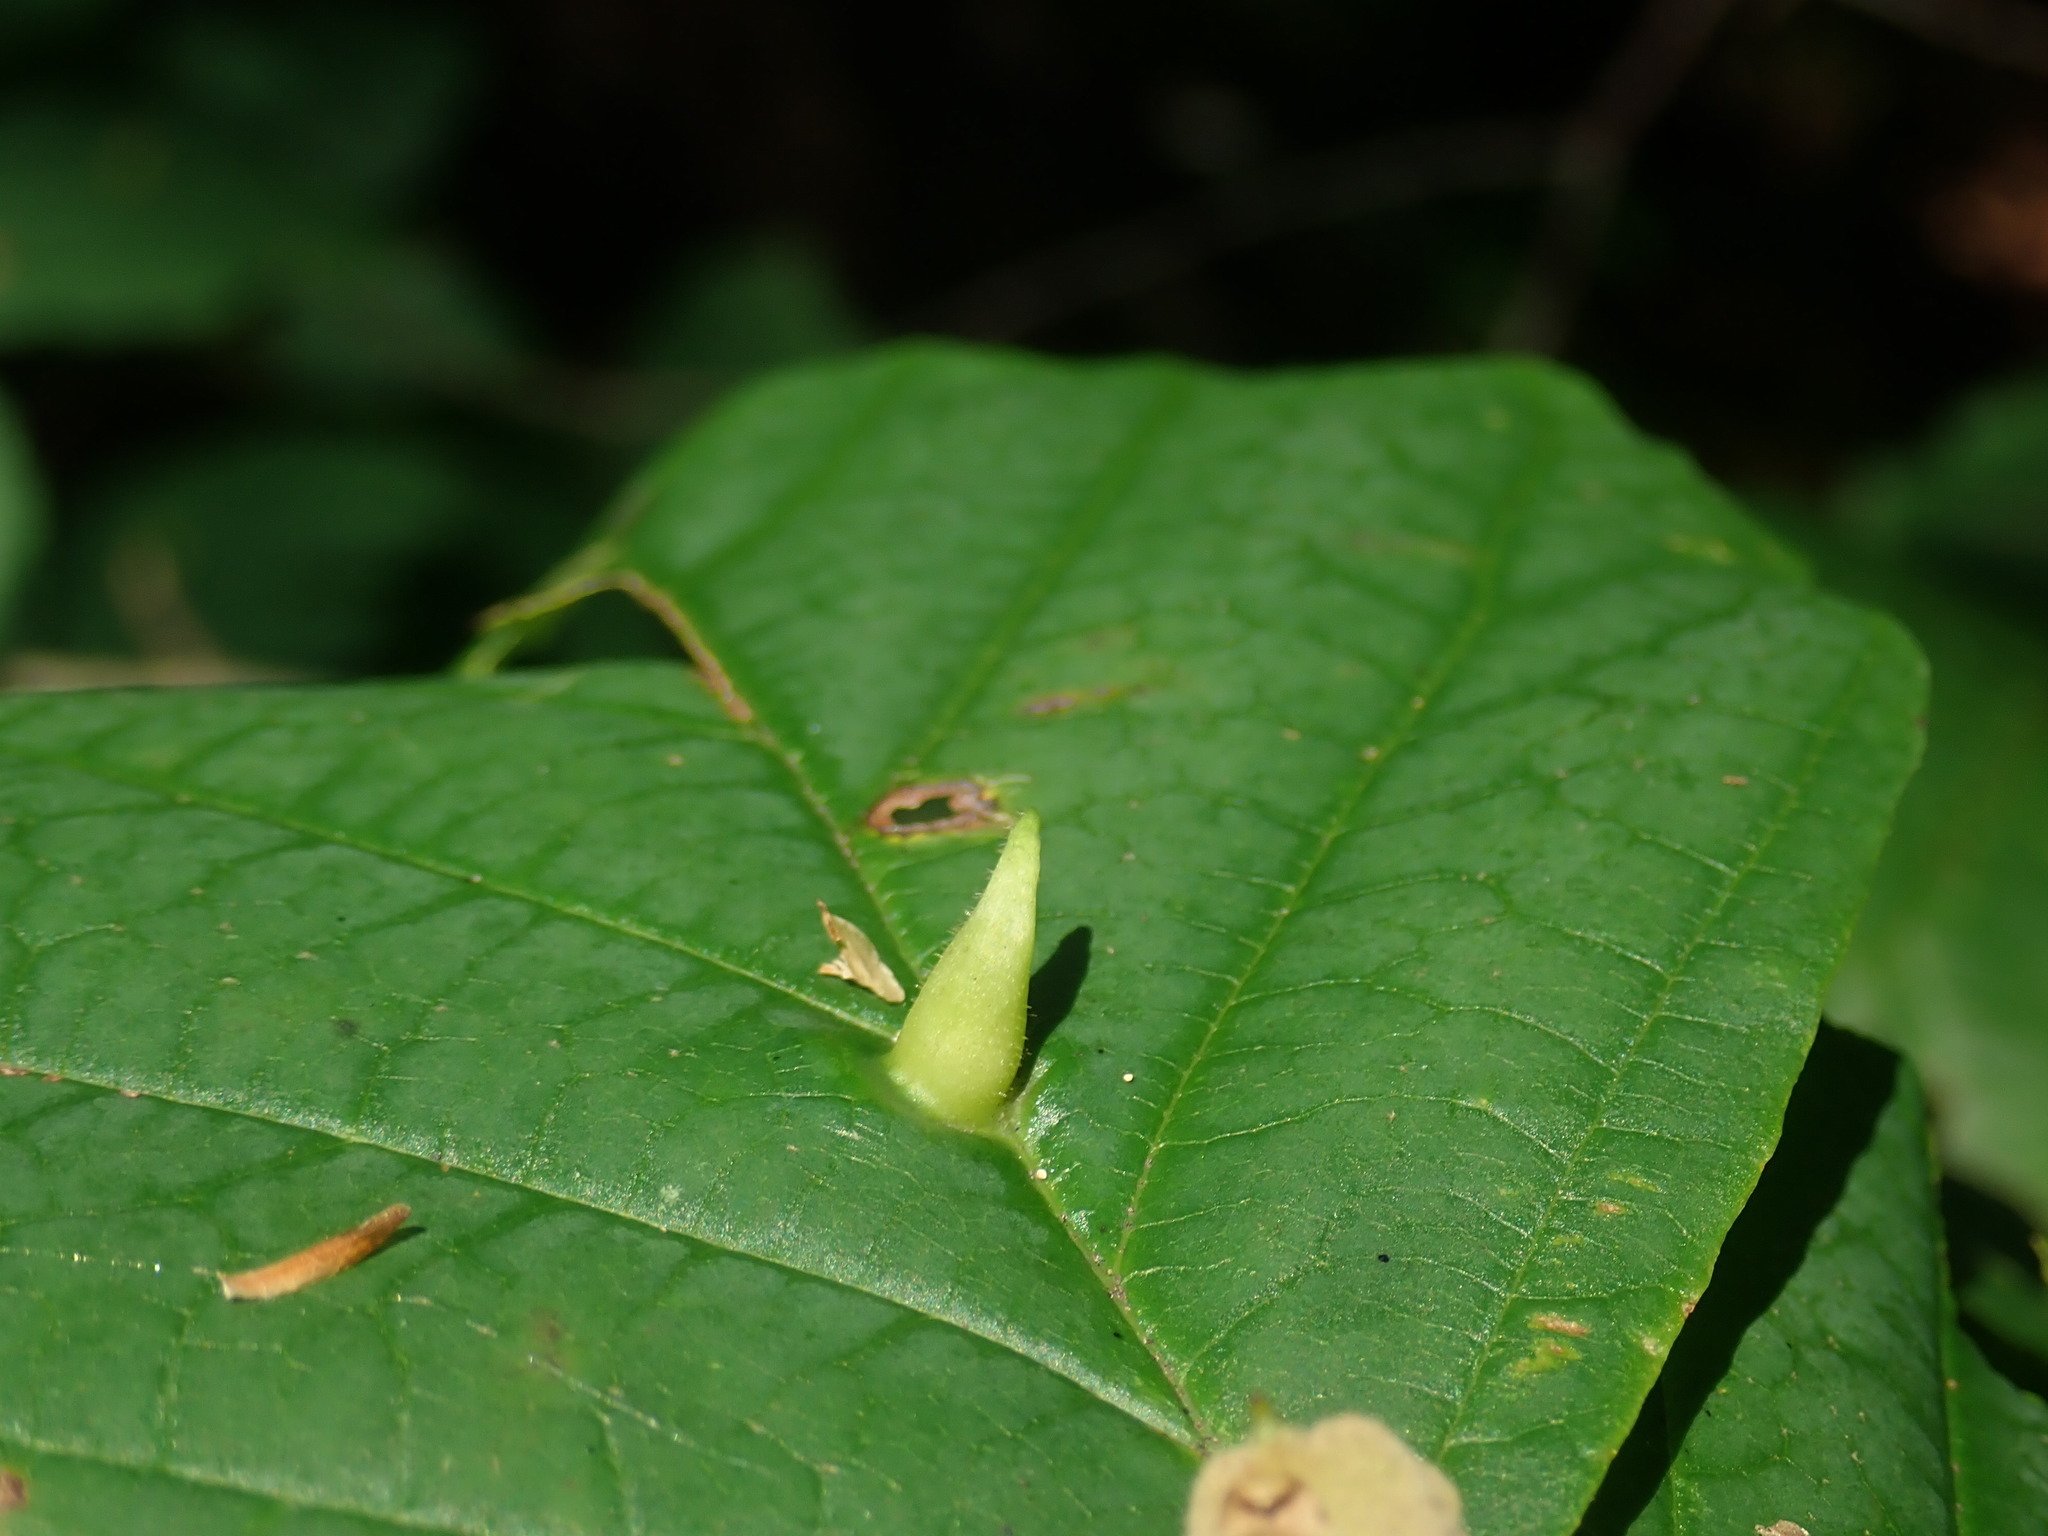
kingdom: Animalia
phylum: Arthropoda
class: Insecta
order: Hemiptera
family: Aphididae
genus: Hormaphis
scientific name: Hormaphis hamamelidis
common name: Witch-hazel cone gall aphid
